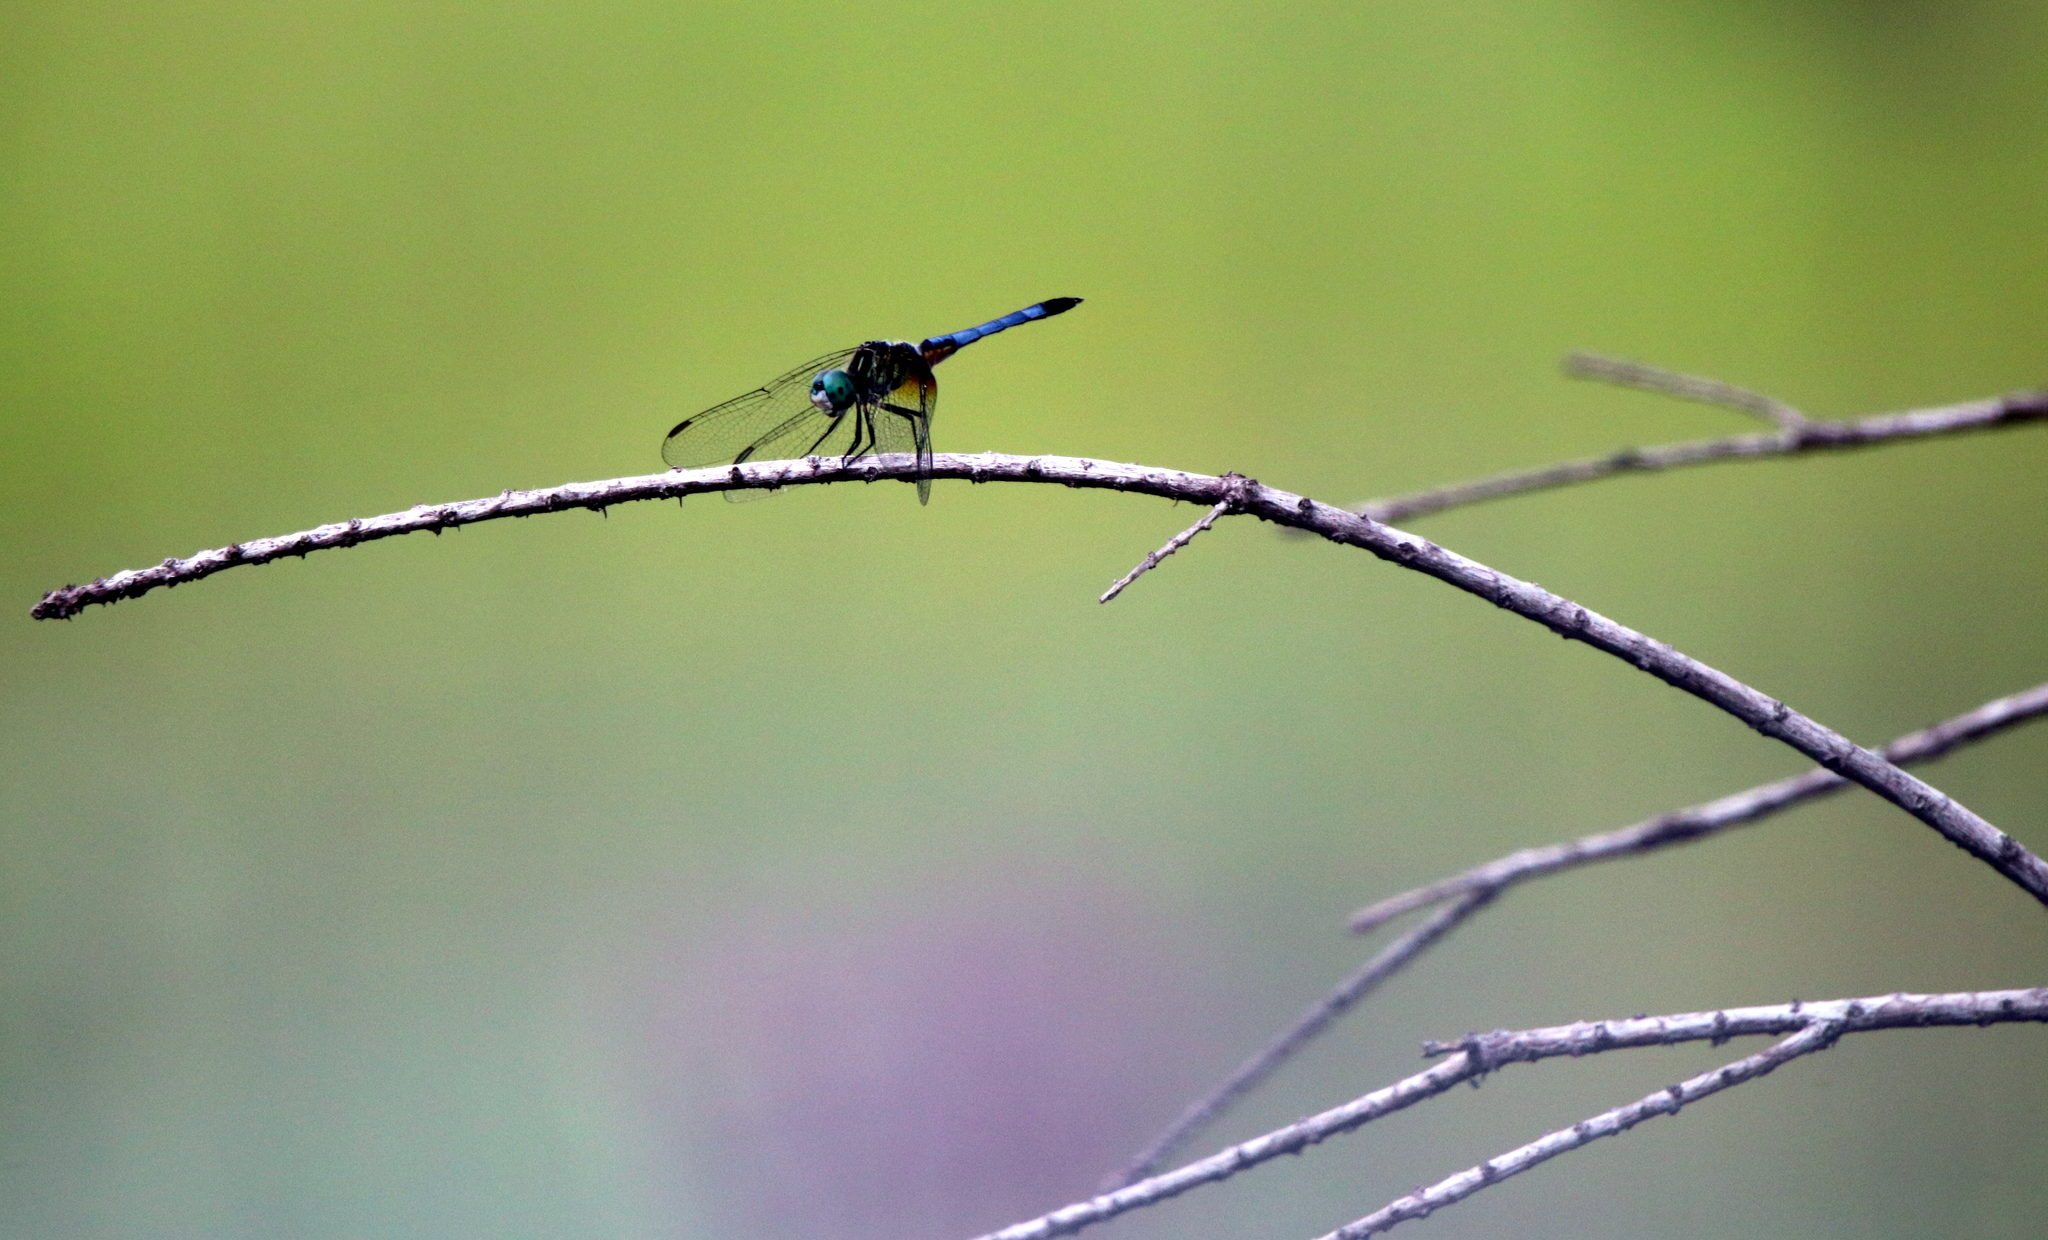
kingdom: Animalia
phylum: Arthropoda
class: Insecta
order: Odonata
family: Libellulidae
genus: Pachydiplax
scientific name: Pachydiplax longipennis
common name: Blue dasher
